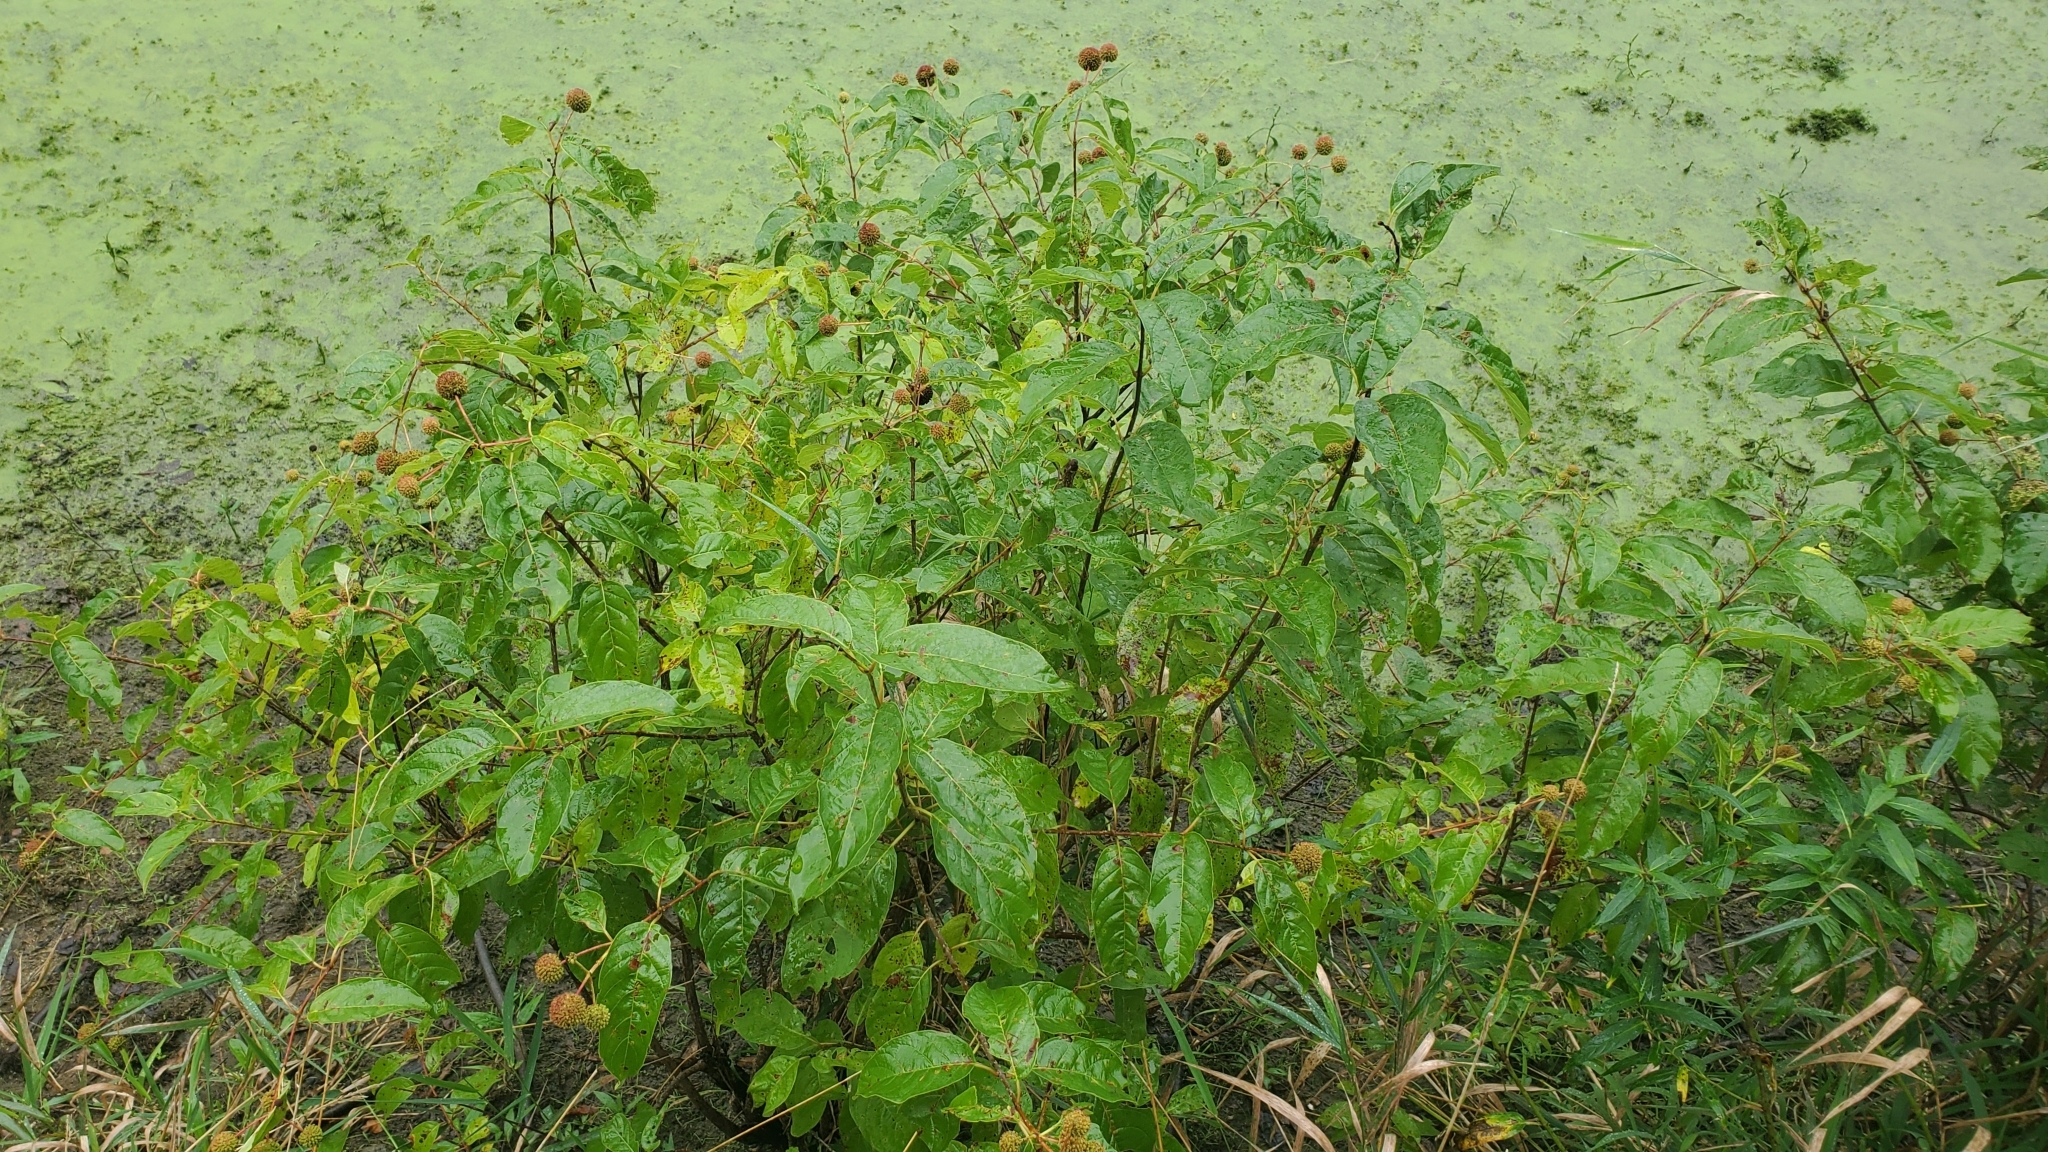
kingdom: Plantae
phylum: Tracheophyta
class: Magnoliopsida
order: Gentianales
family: Rubiaceae
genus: Cephalanthus
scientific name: Cephalanthus occidentalis
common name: Button-willow
